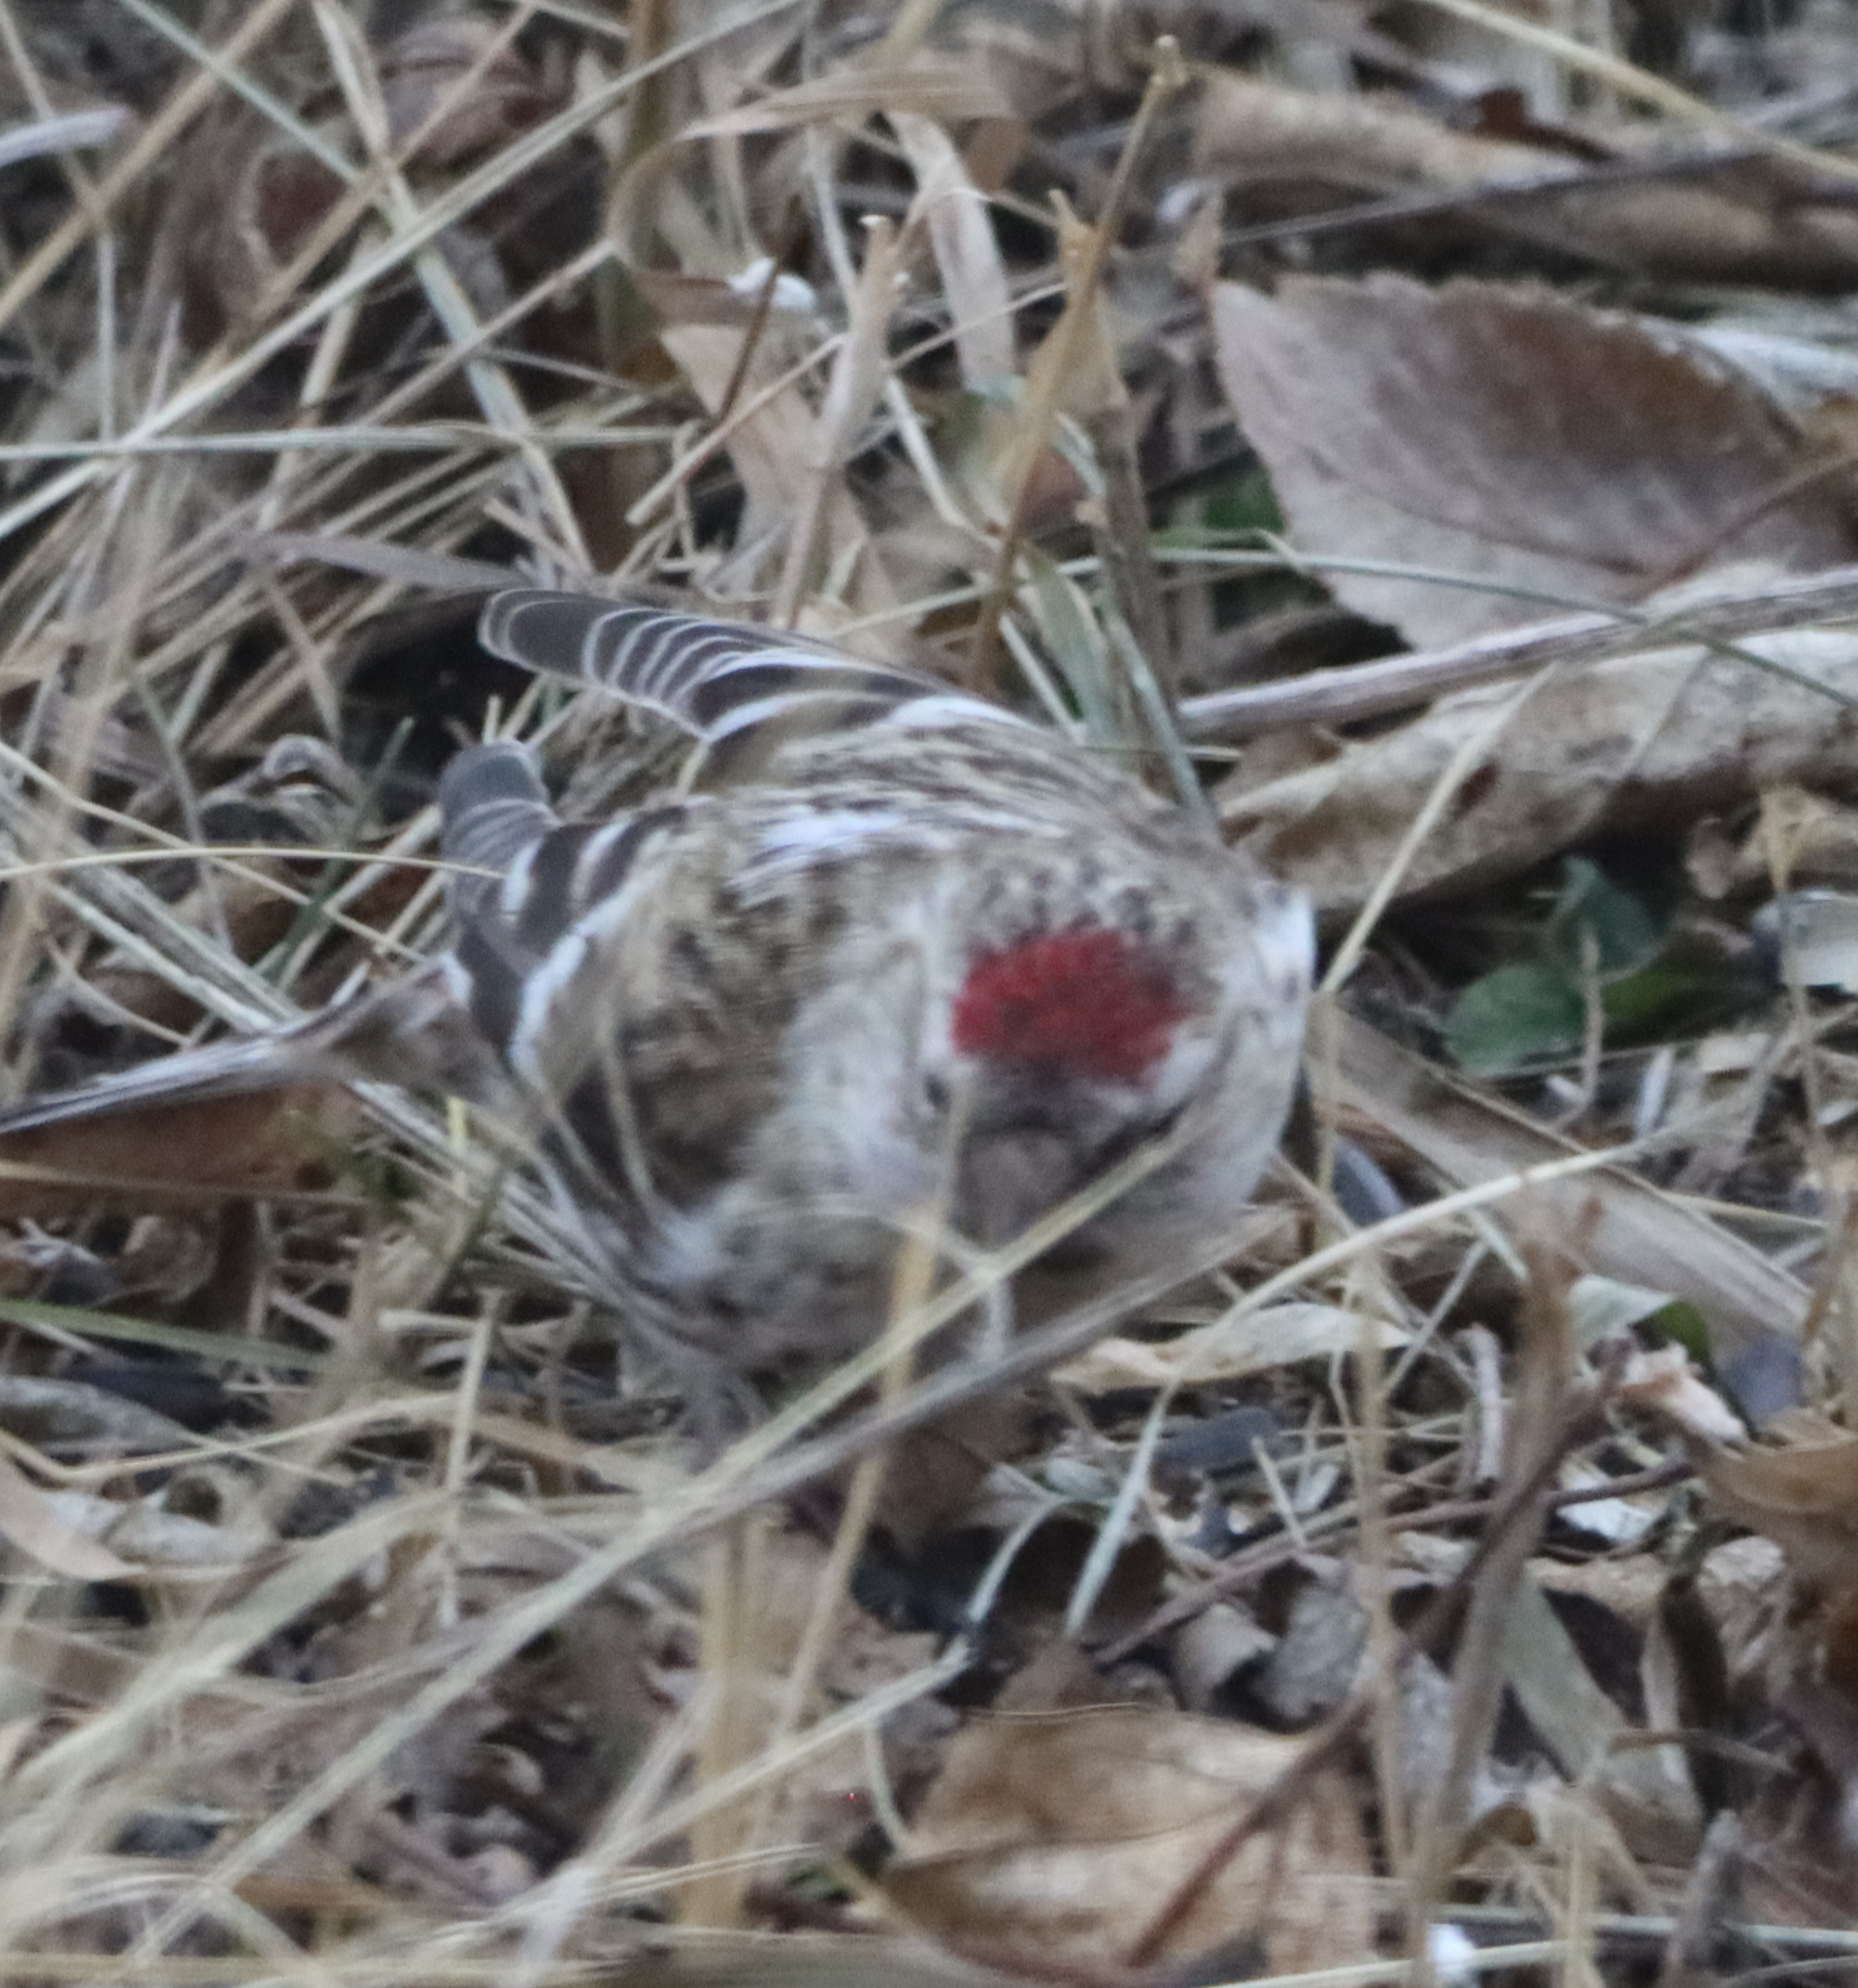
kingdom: Animalia
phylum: Chordata
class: Aves
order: Passeriformes
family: Fringillidae
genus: Acanthis
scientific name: Acanthis flammea
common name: Common redpoll
